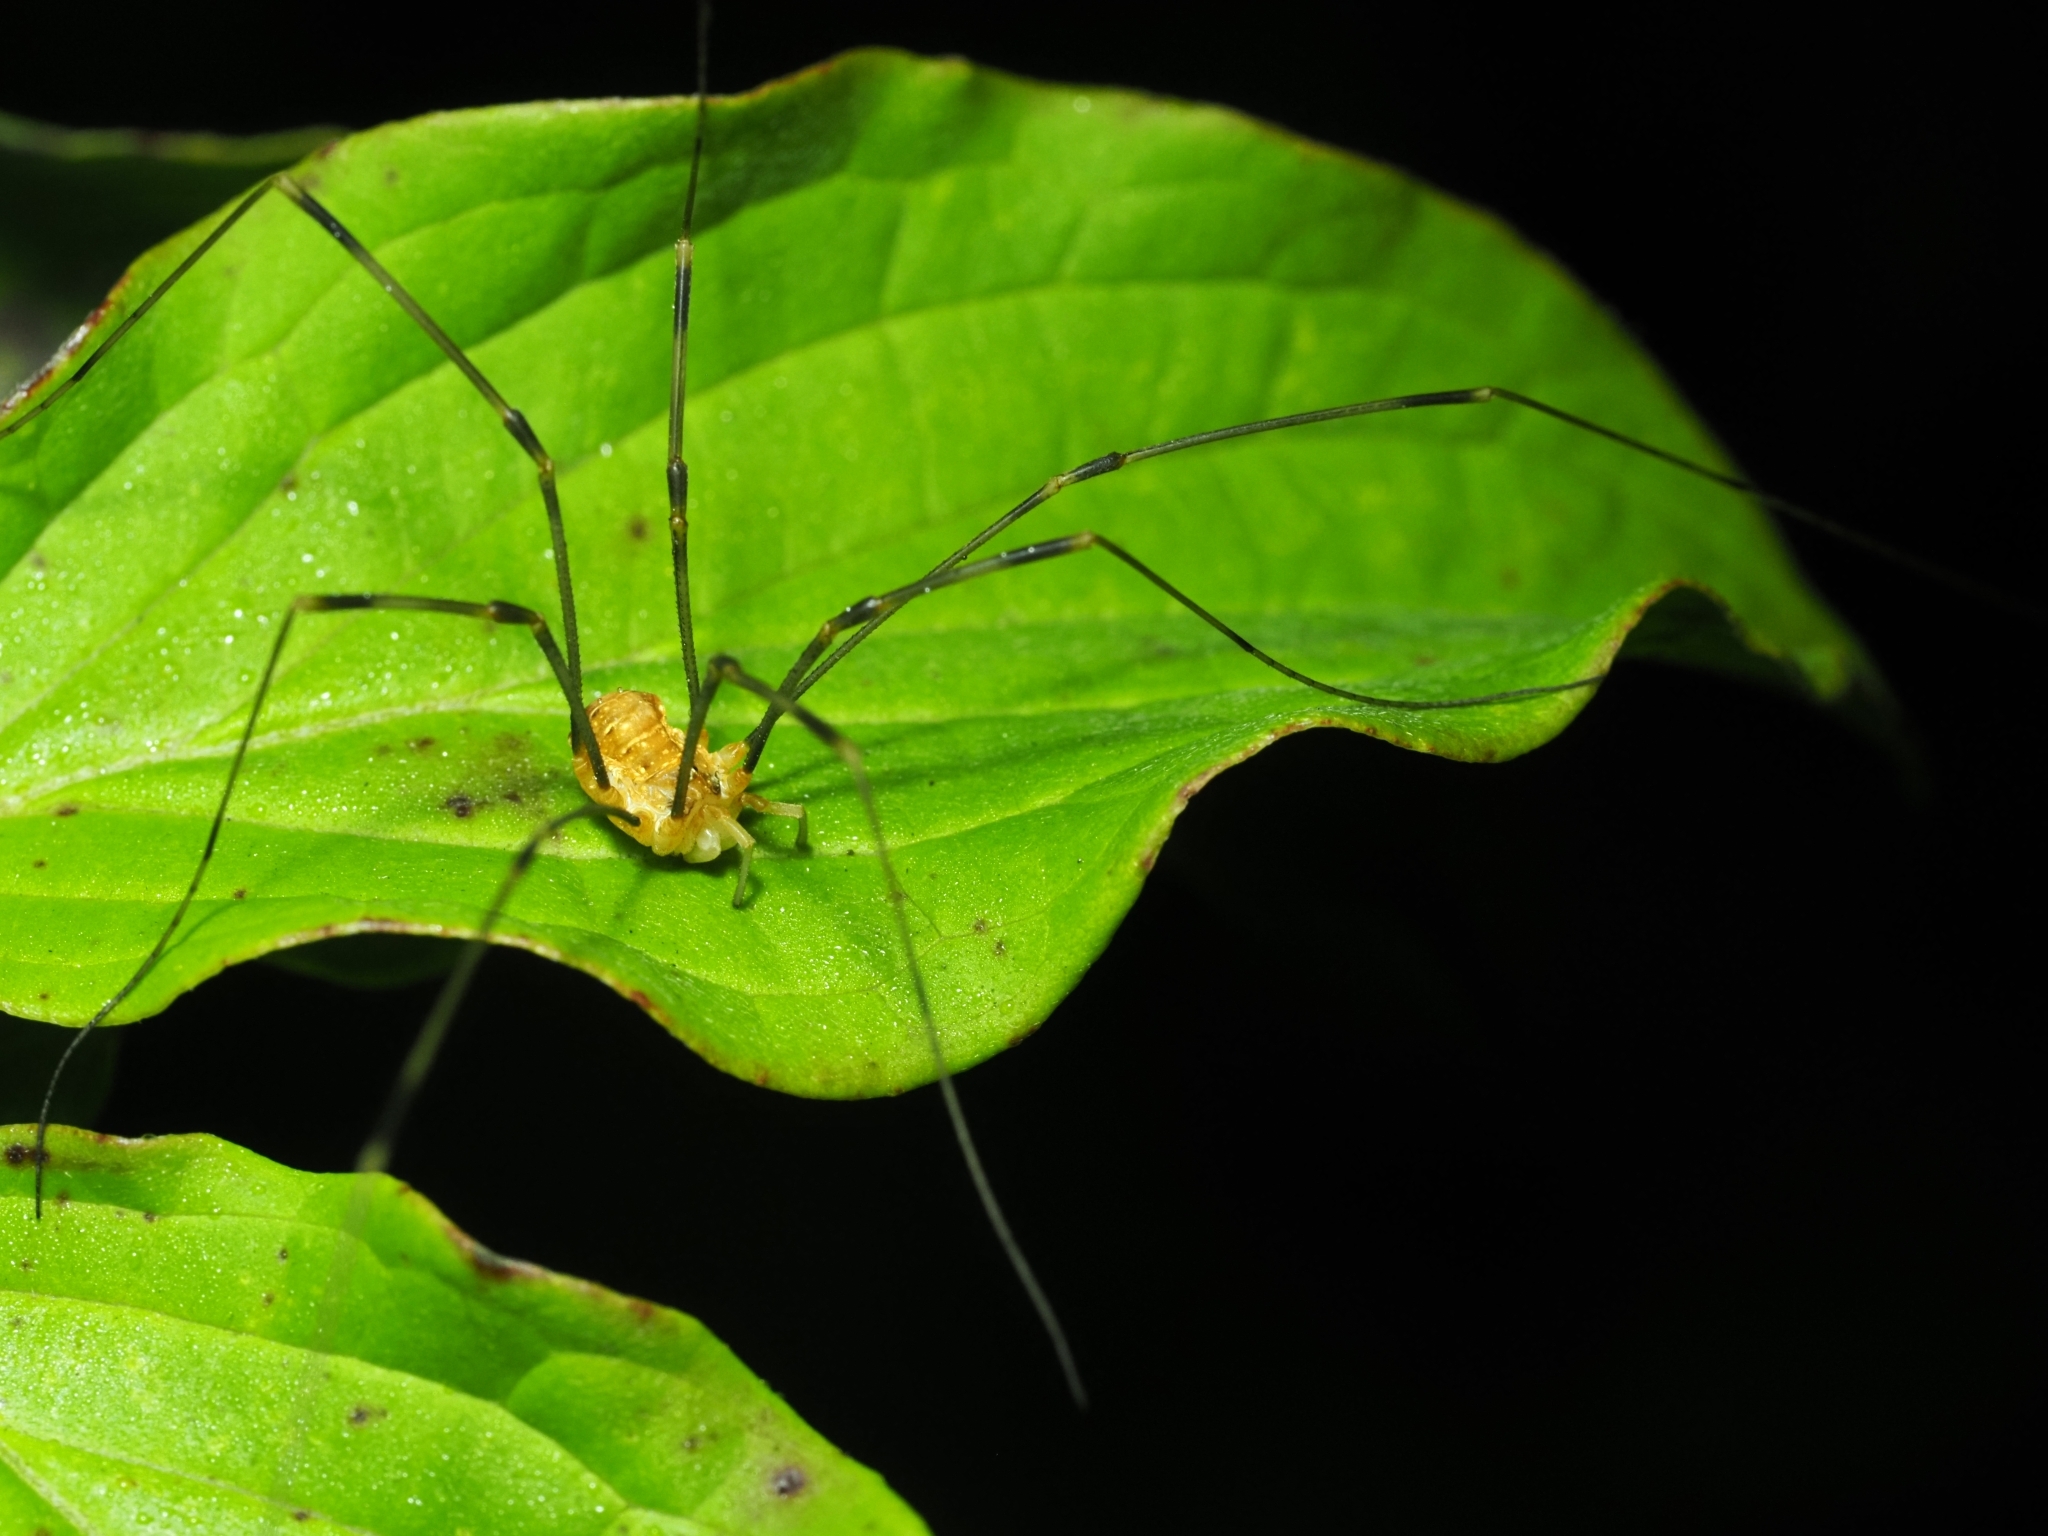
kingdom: Animalia
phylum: Arthropoda
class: Arachnida
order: Opiliones
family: Phalangiidae
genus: Opilio
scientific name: Opilio canestrinii
